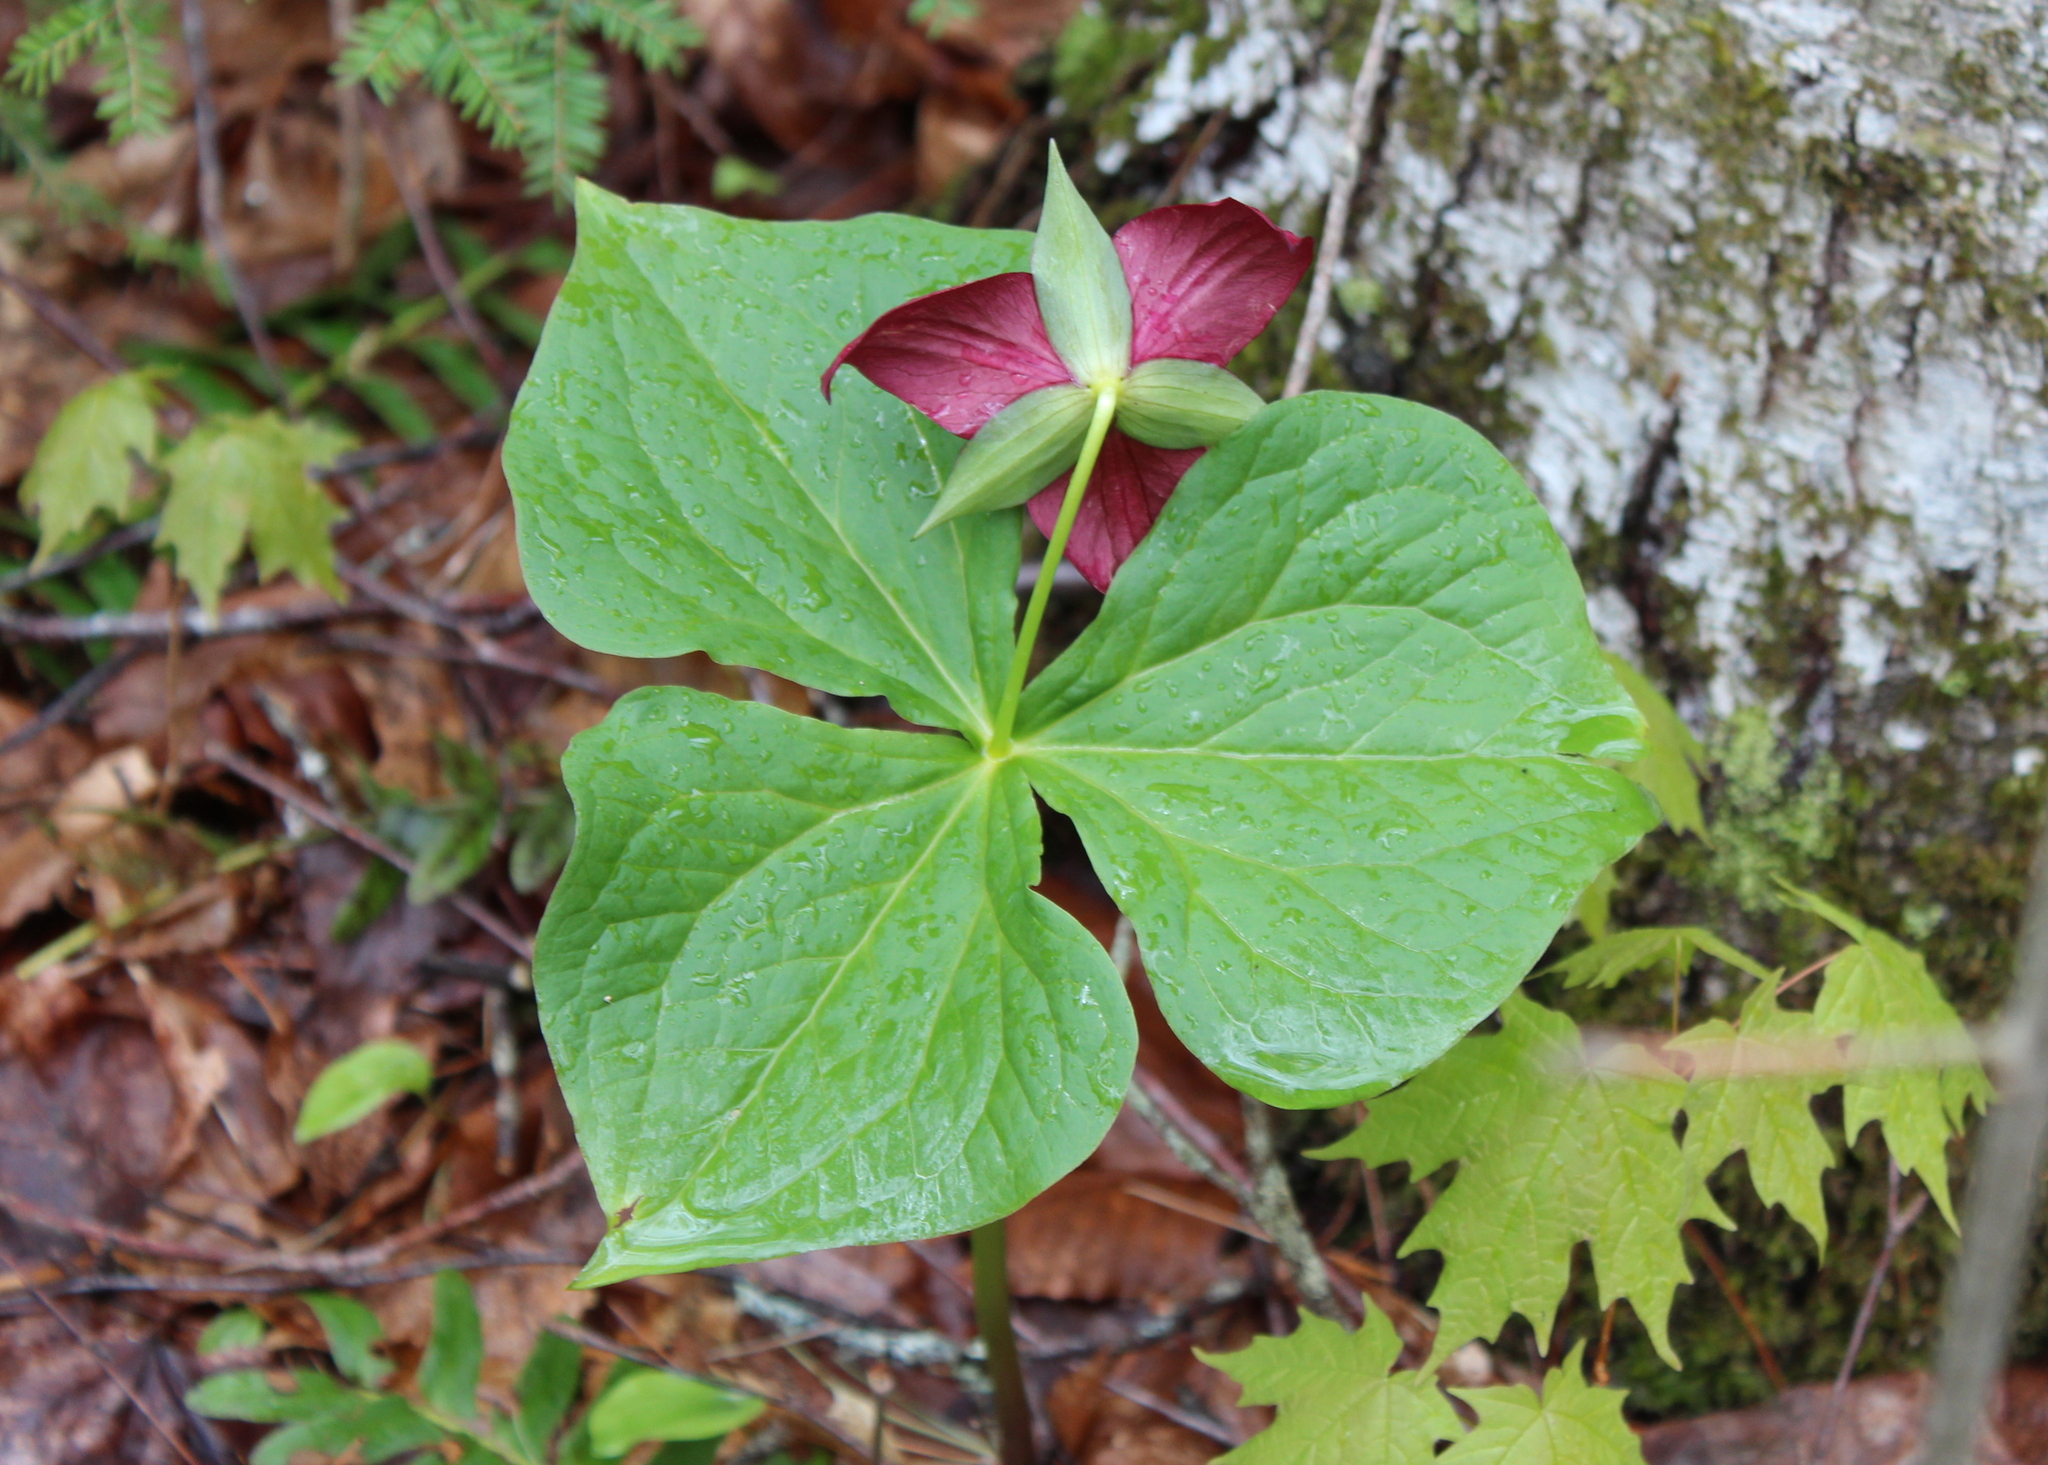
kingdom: Plantae
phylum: Tracheophyta
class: Liliopsida
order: Liliales
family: Melanthiaceae
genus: Trillium
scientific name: Trillium erectum
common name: Purple trillium
